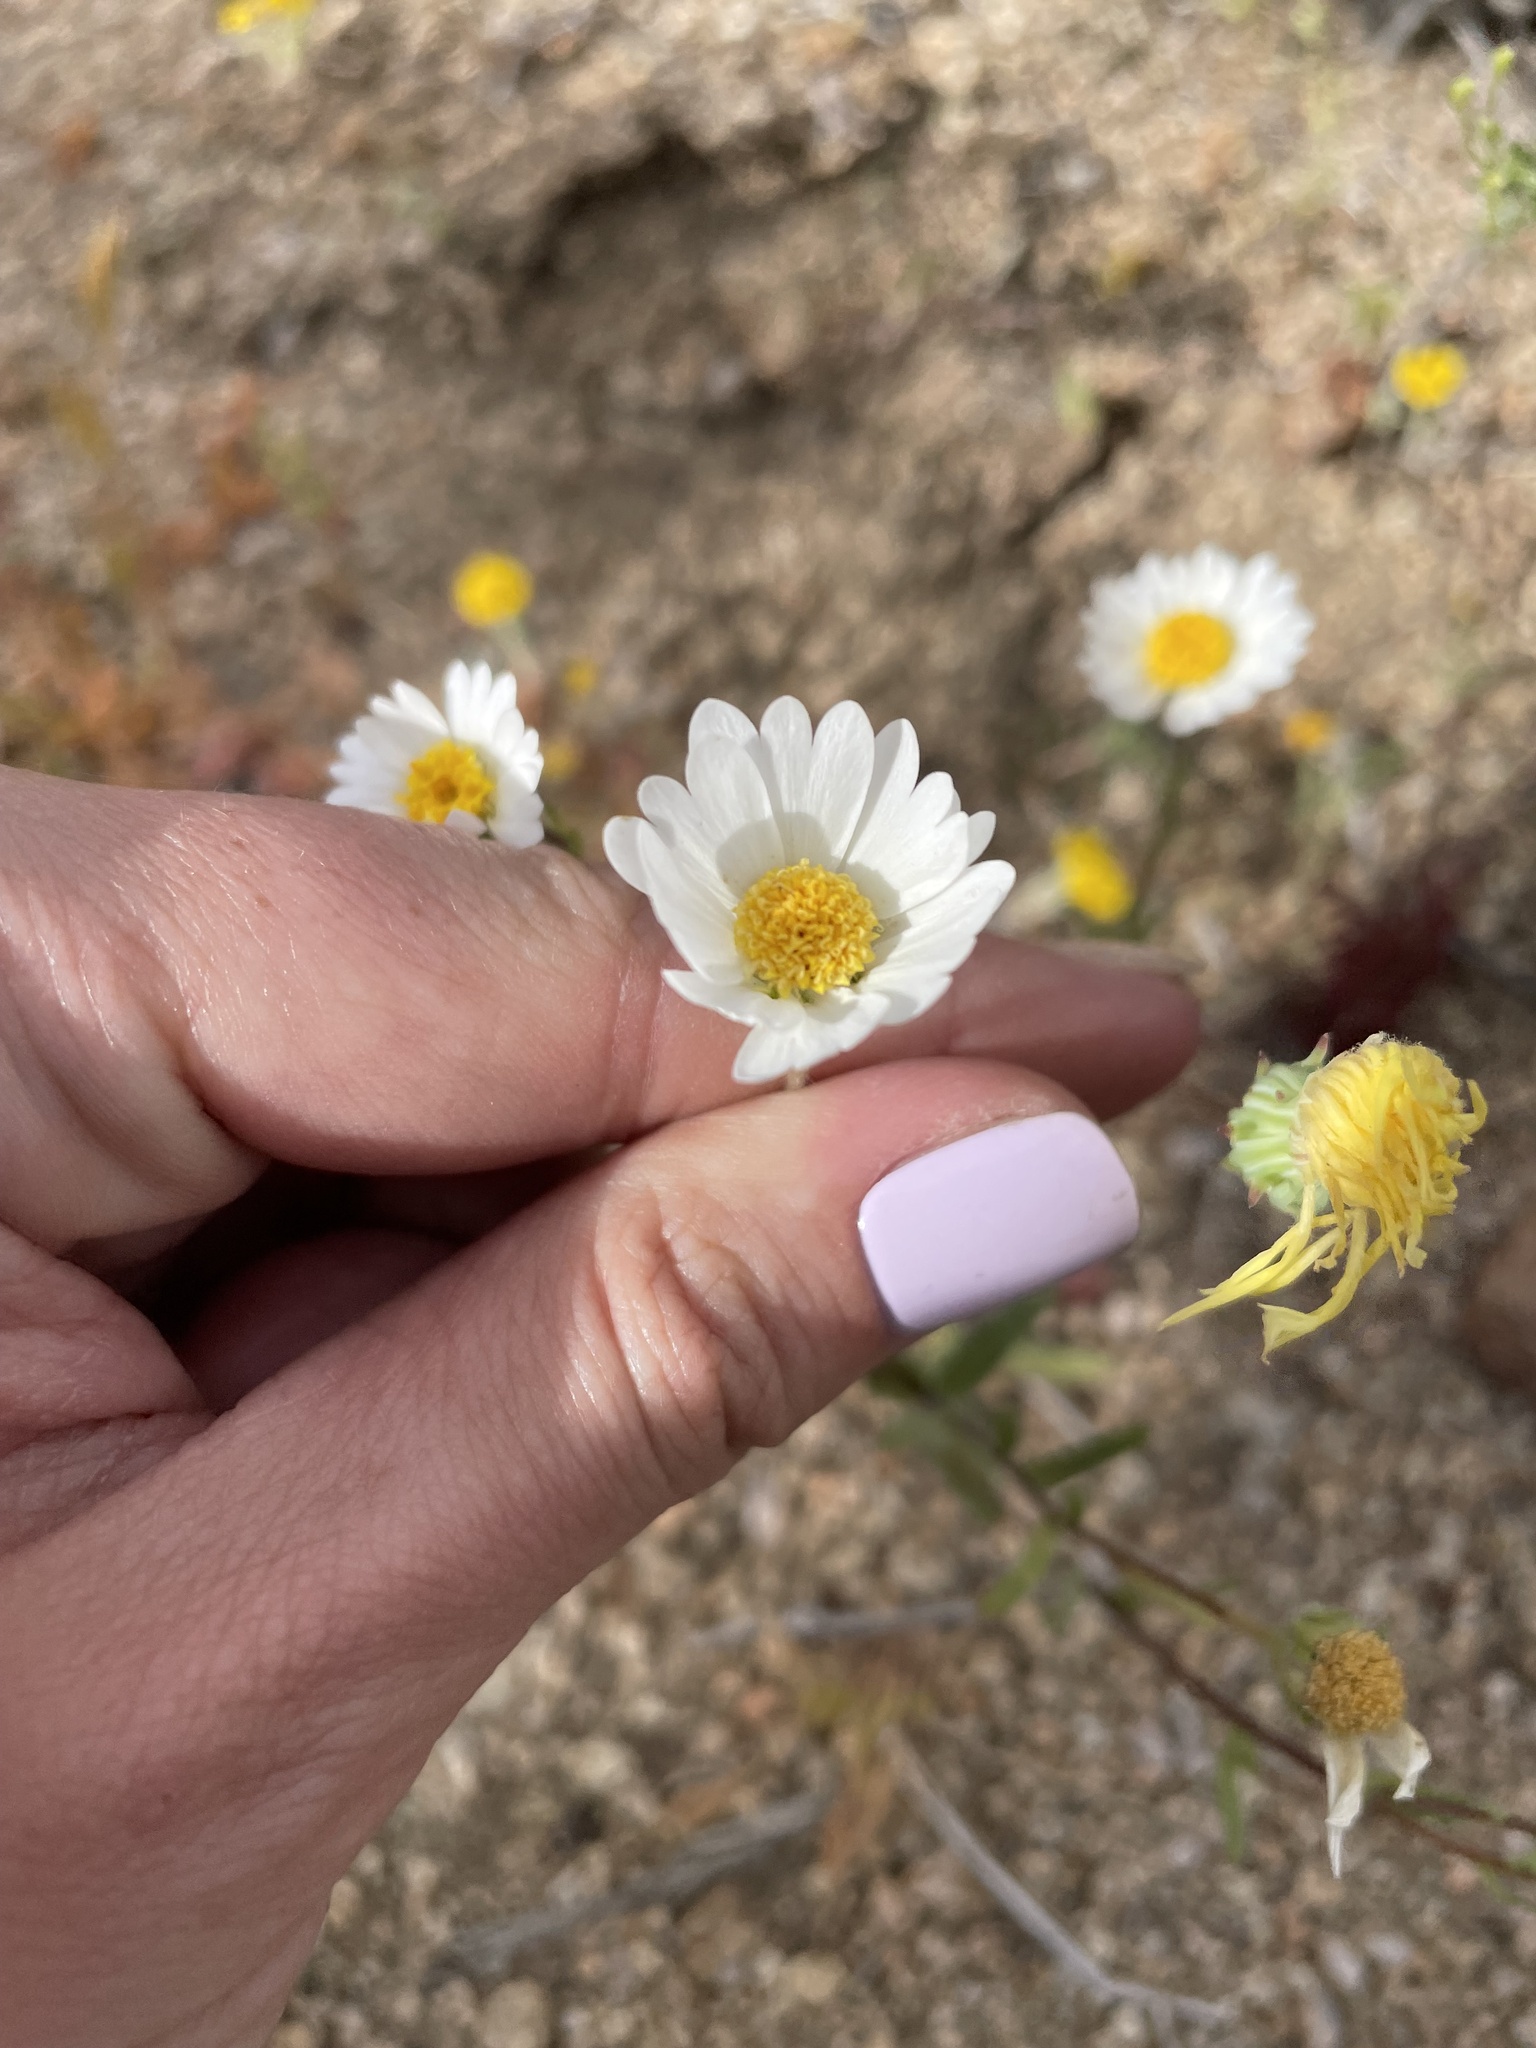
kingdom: Plantae
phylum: Tracheophyta
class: Magnoliopsida
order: Asterales
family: Asteraceae
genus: Layia
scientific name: Layia glandulosa
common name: White layia
